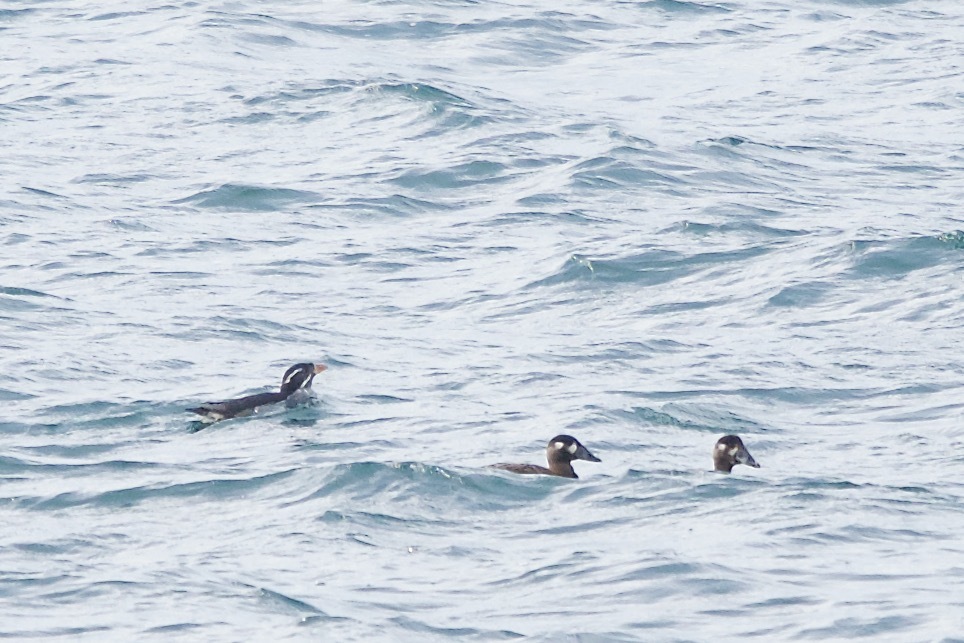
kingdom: Animalia
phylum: Chordata
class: Aves
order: Charadriiformes
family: Alcidae
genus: Cerorhinca
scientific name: Cerorhinca monocerata
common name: Rhinoceros auklet
